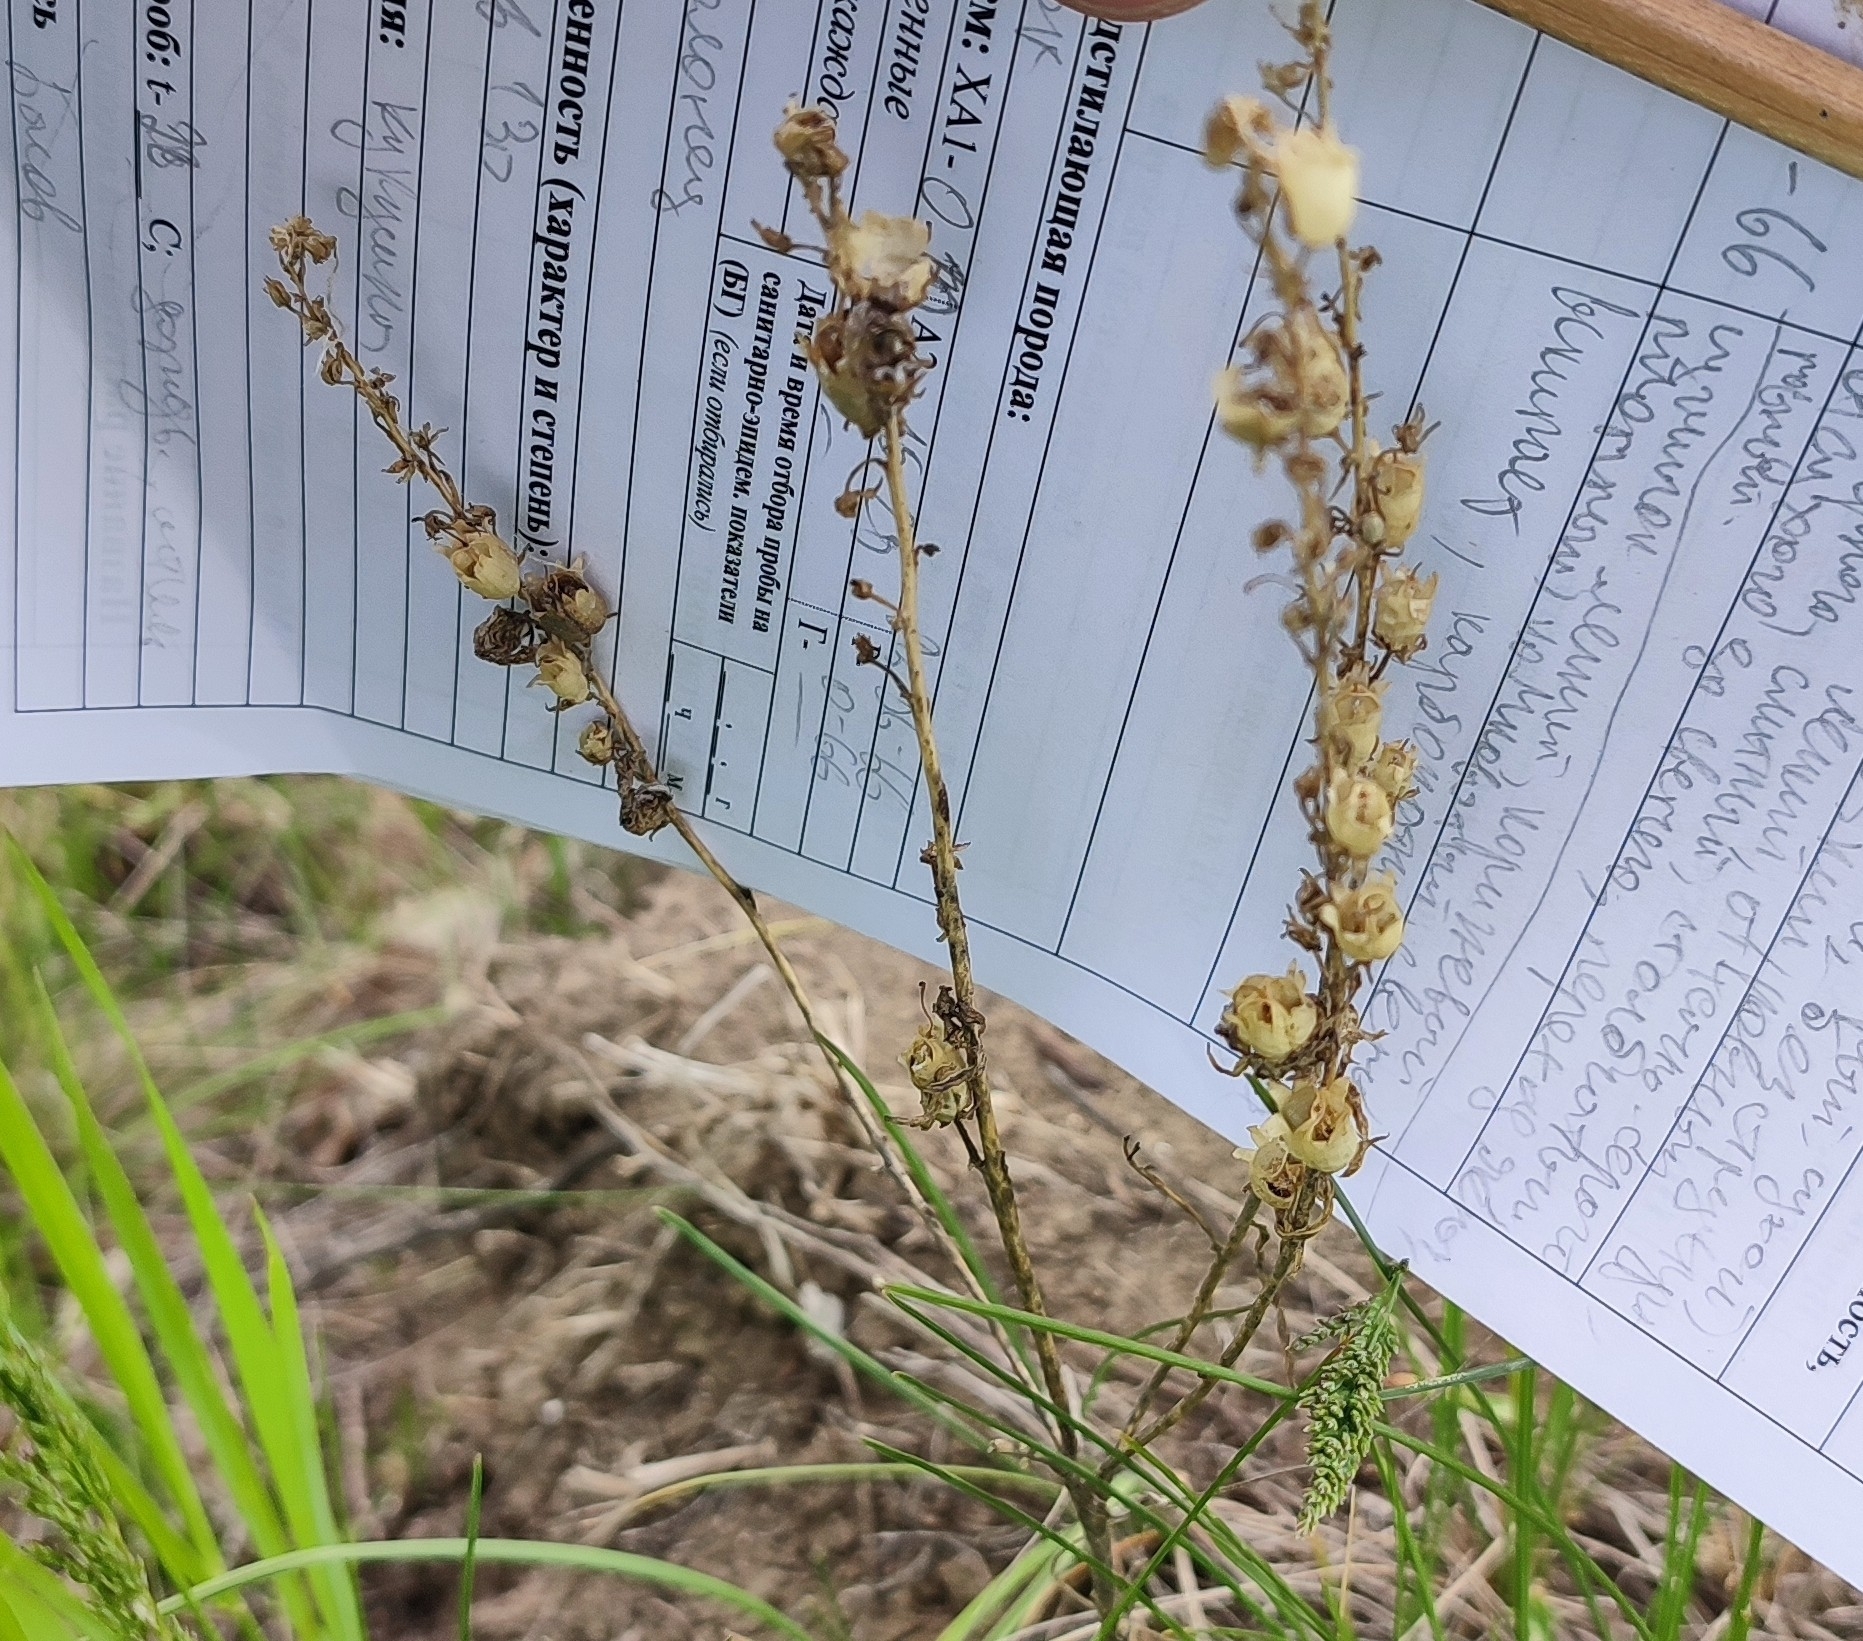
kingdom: Plantae
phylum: Tracheophyta
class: Magnoliopsida
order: Lamiales
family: Plantaginaceae
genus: Linaria
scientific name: Linaria vulgaris
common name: Butter and eggs
